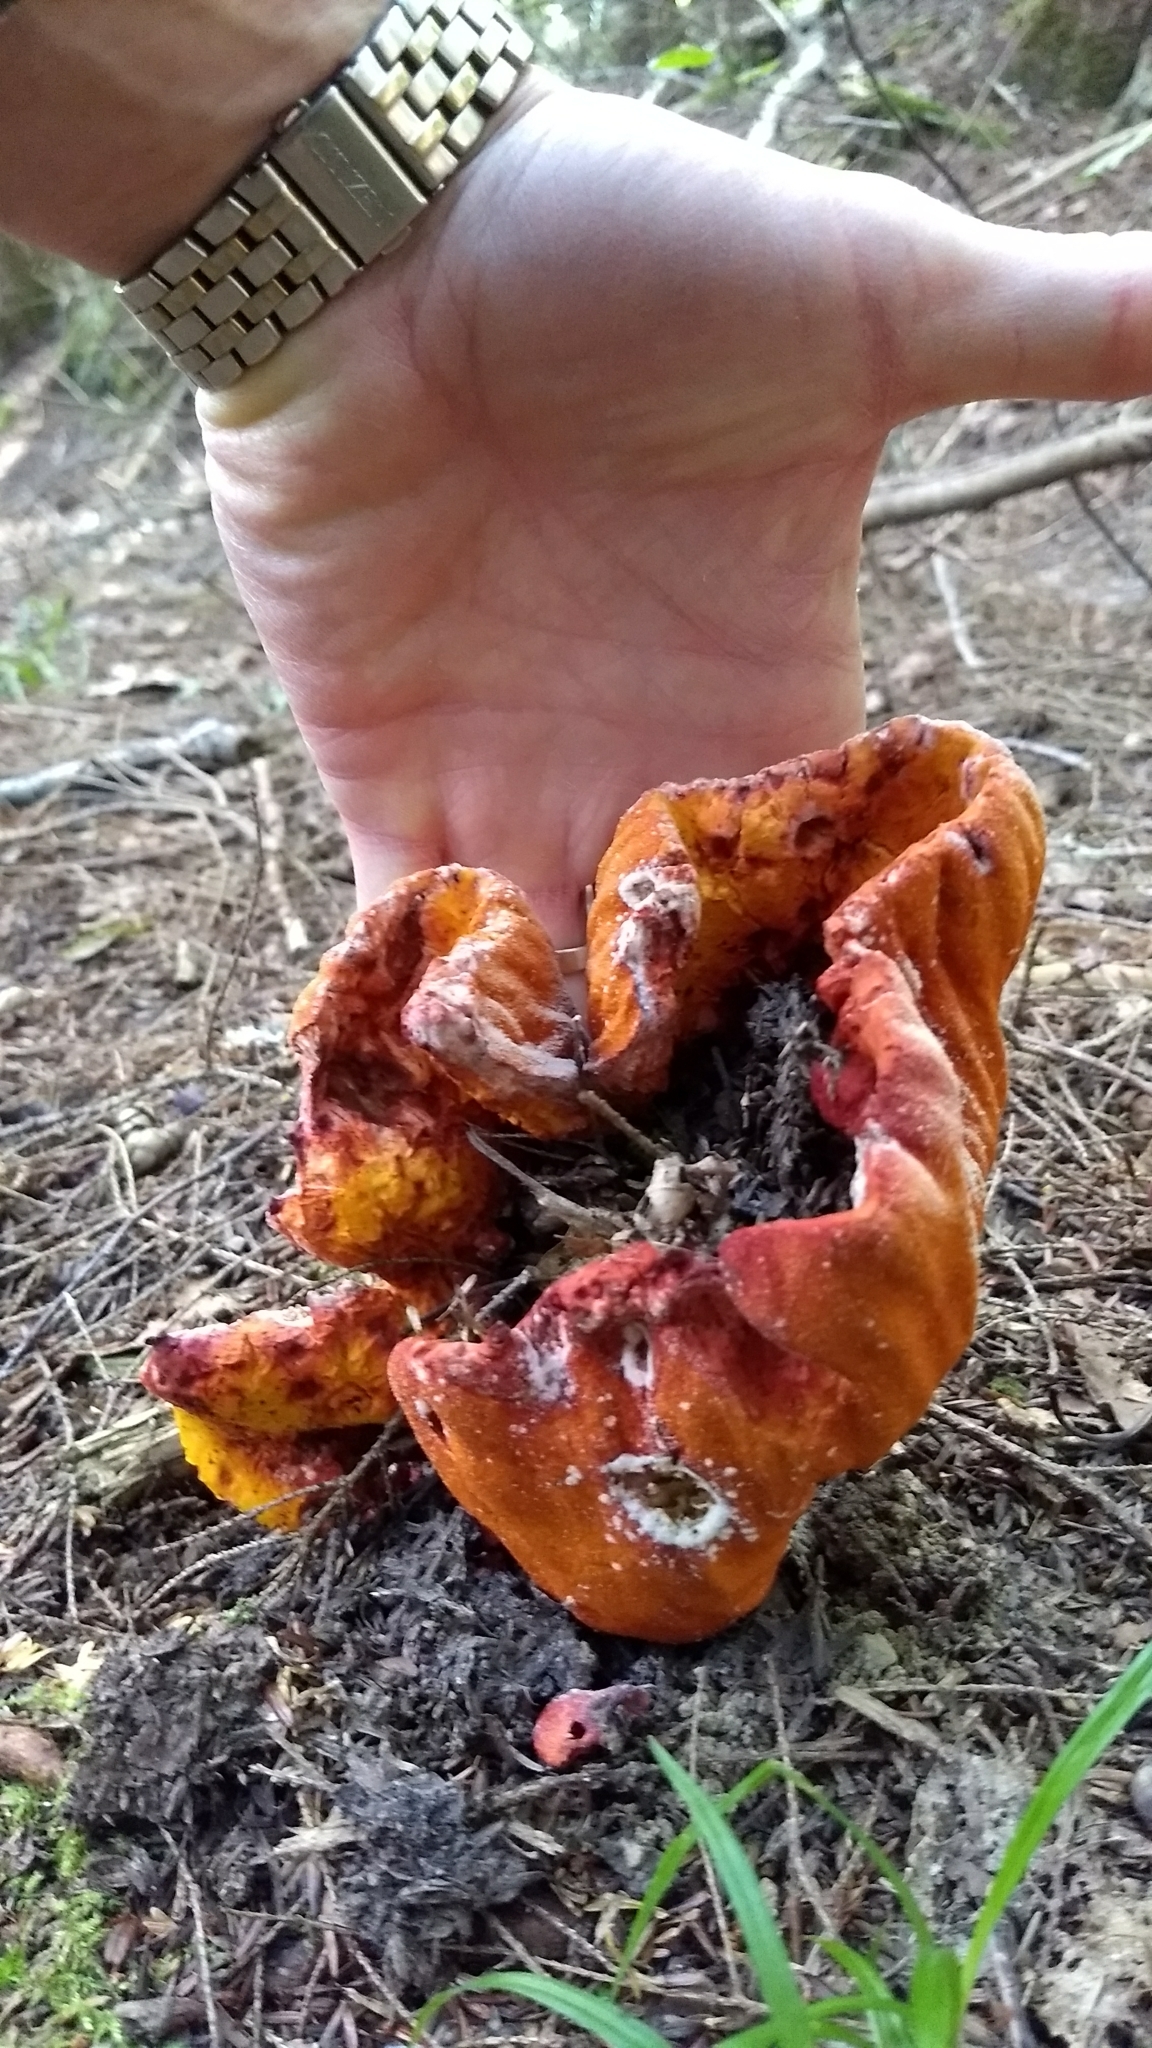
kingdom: Fungi
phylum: Ascomycota
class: Sordariomycetes
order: Hypocreales
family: Hypocreaceae
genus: Hypomyces
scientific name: Hypomyces lactifluorum
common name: Lobster mushroom
